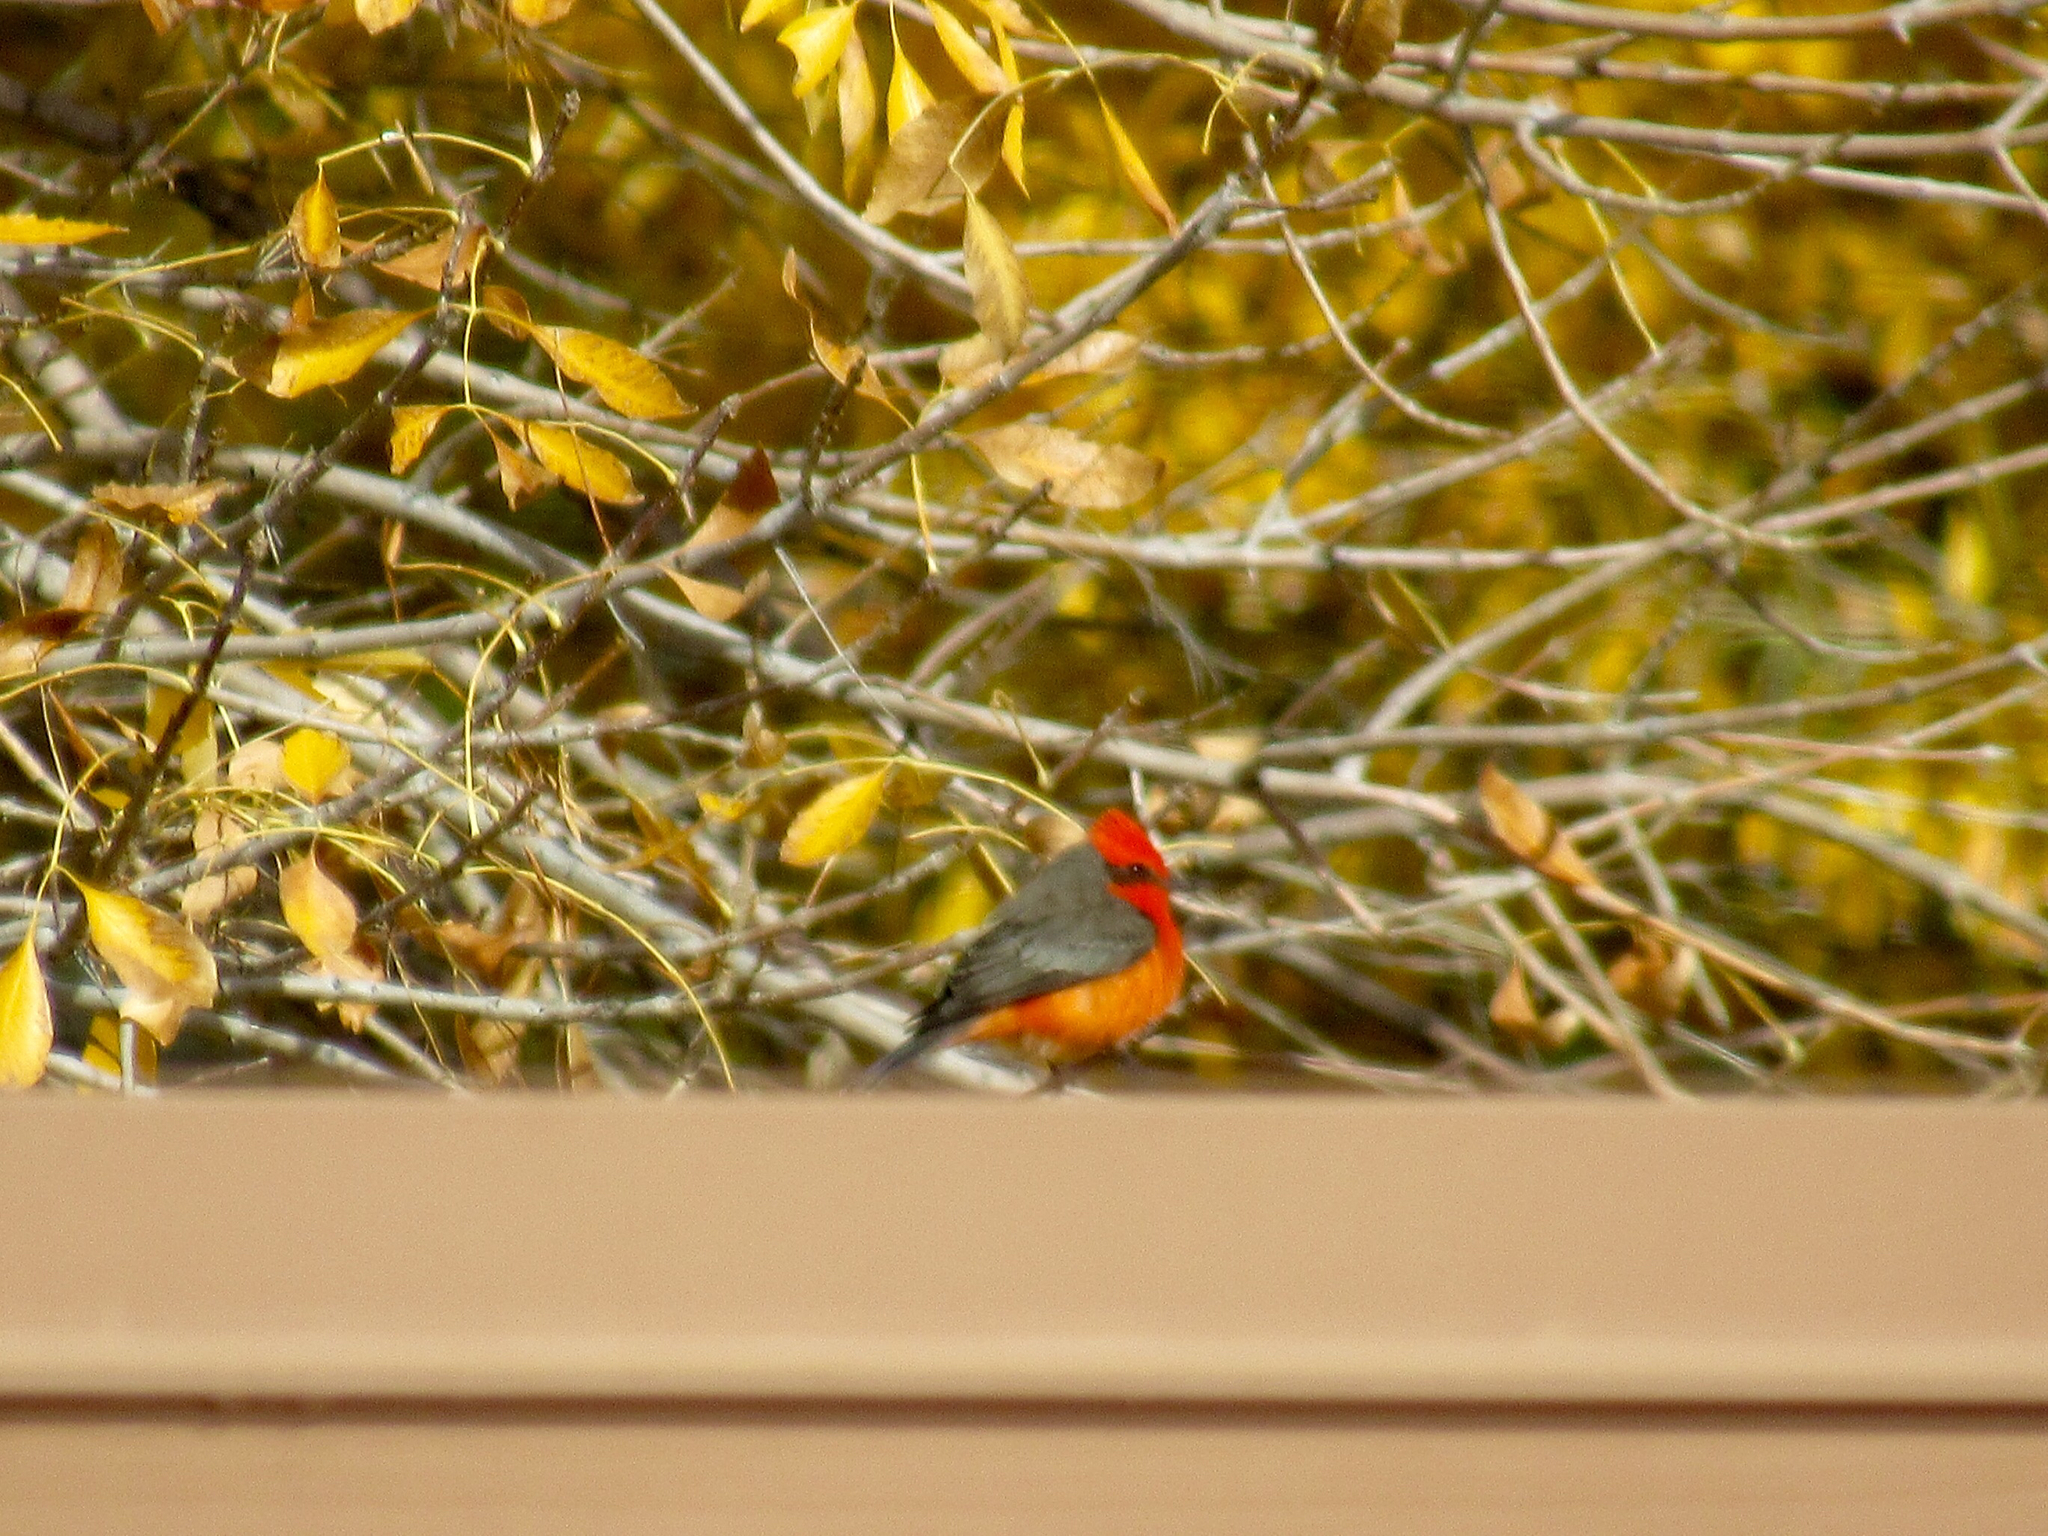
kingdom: Animalia
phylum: Chordata
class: Aves
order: Passeriformes
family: Tyrannidae
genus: Pyrocephalus
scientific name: Pyrocephalus rubinus
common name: Vermilion flycatcher
